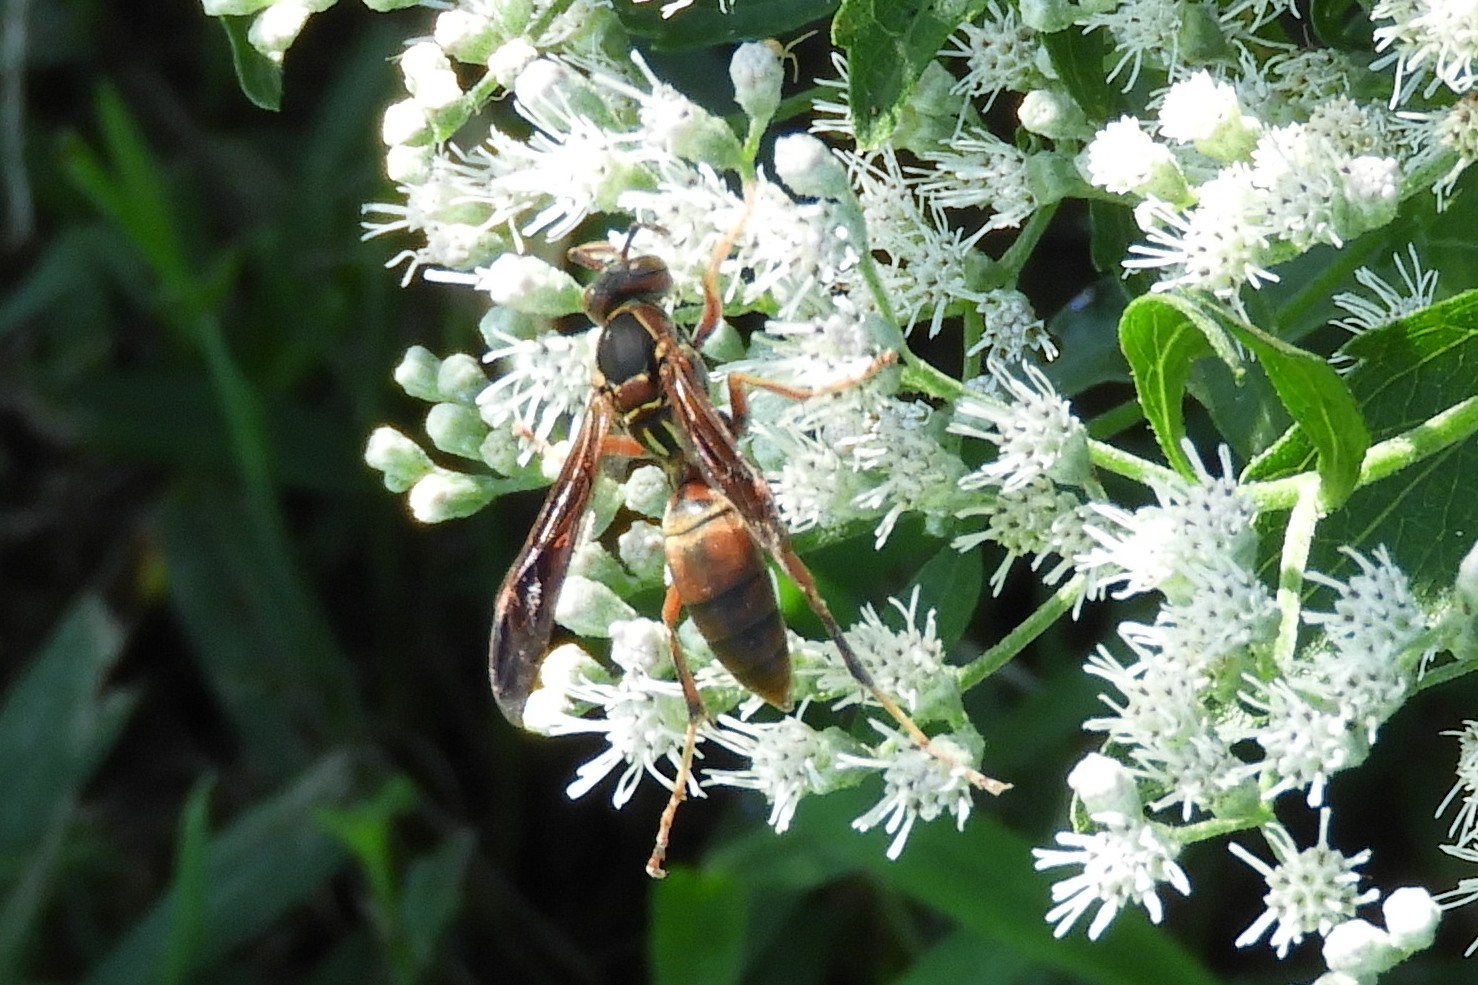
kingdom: Animalia
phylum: Arthropoda
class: Insecta
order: Hymenoptera
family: Eumenidae
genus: Polistes
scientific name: Polistes fuscatus
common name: Dark paper wasp
